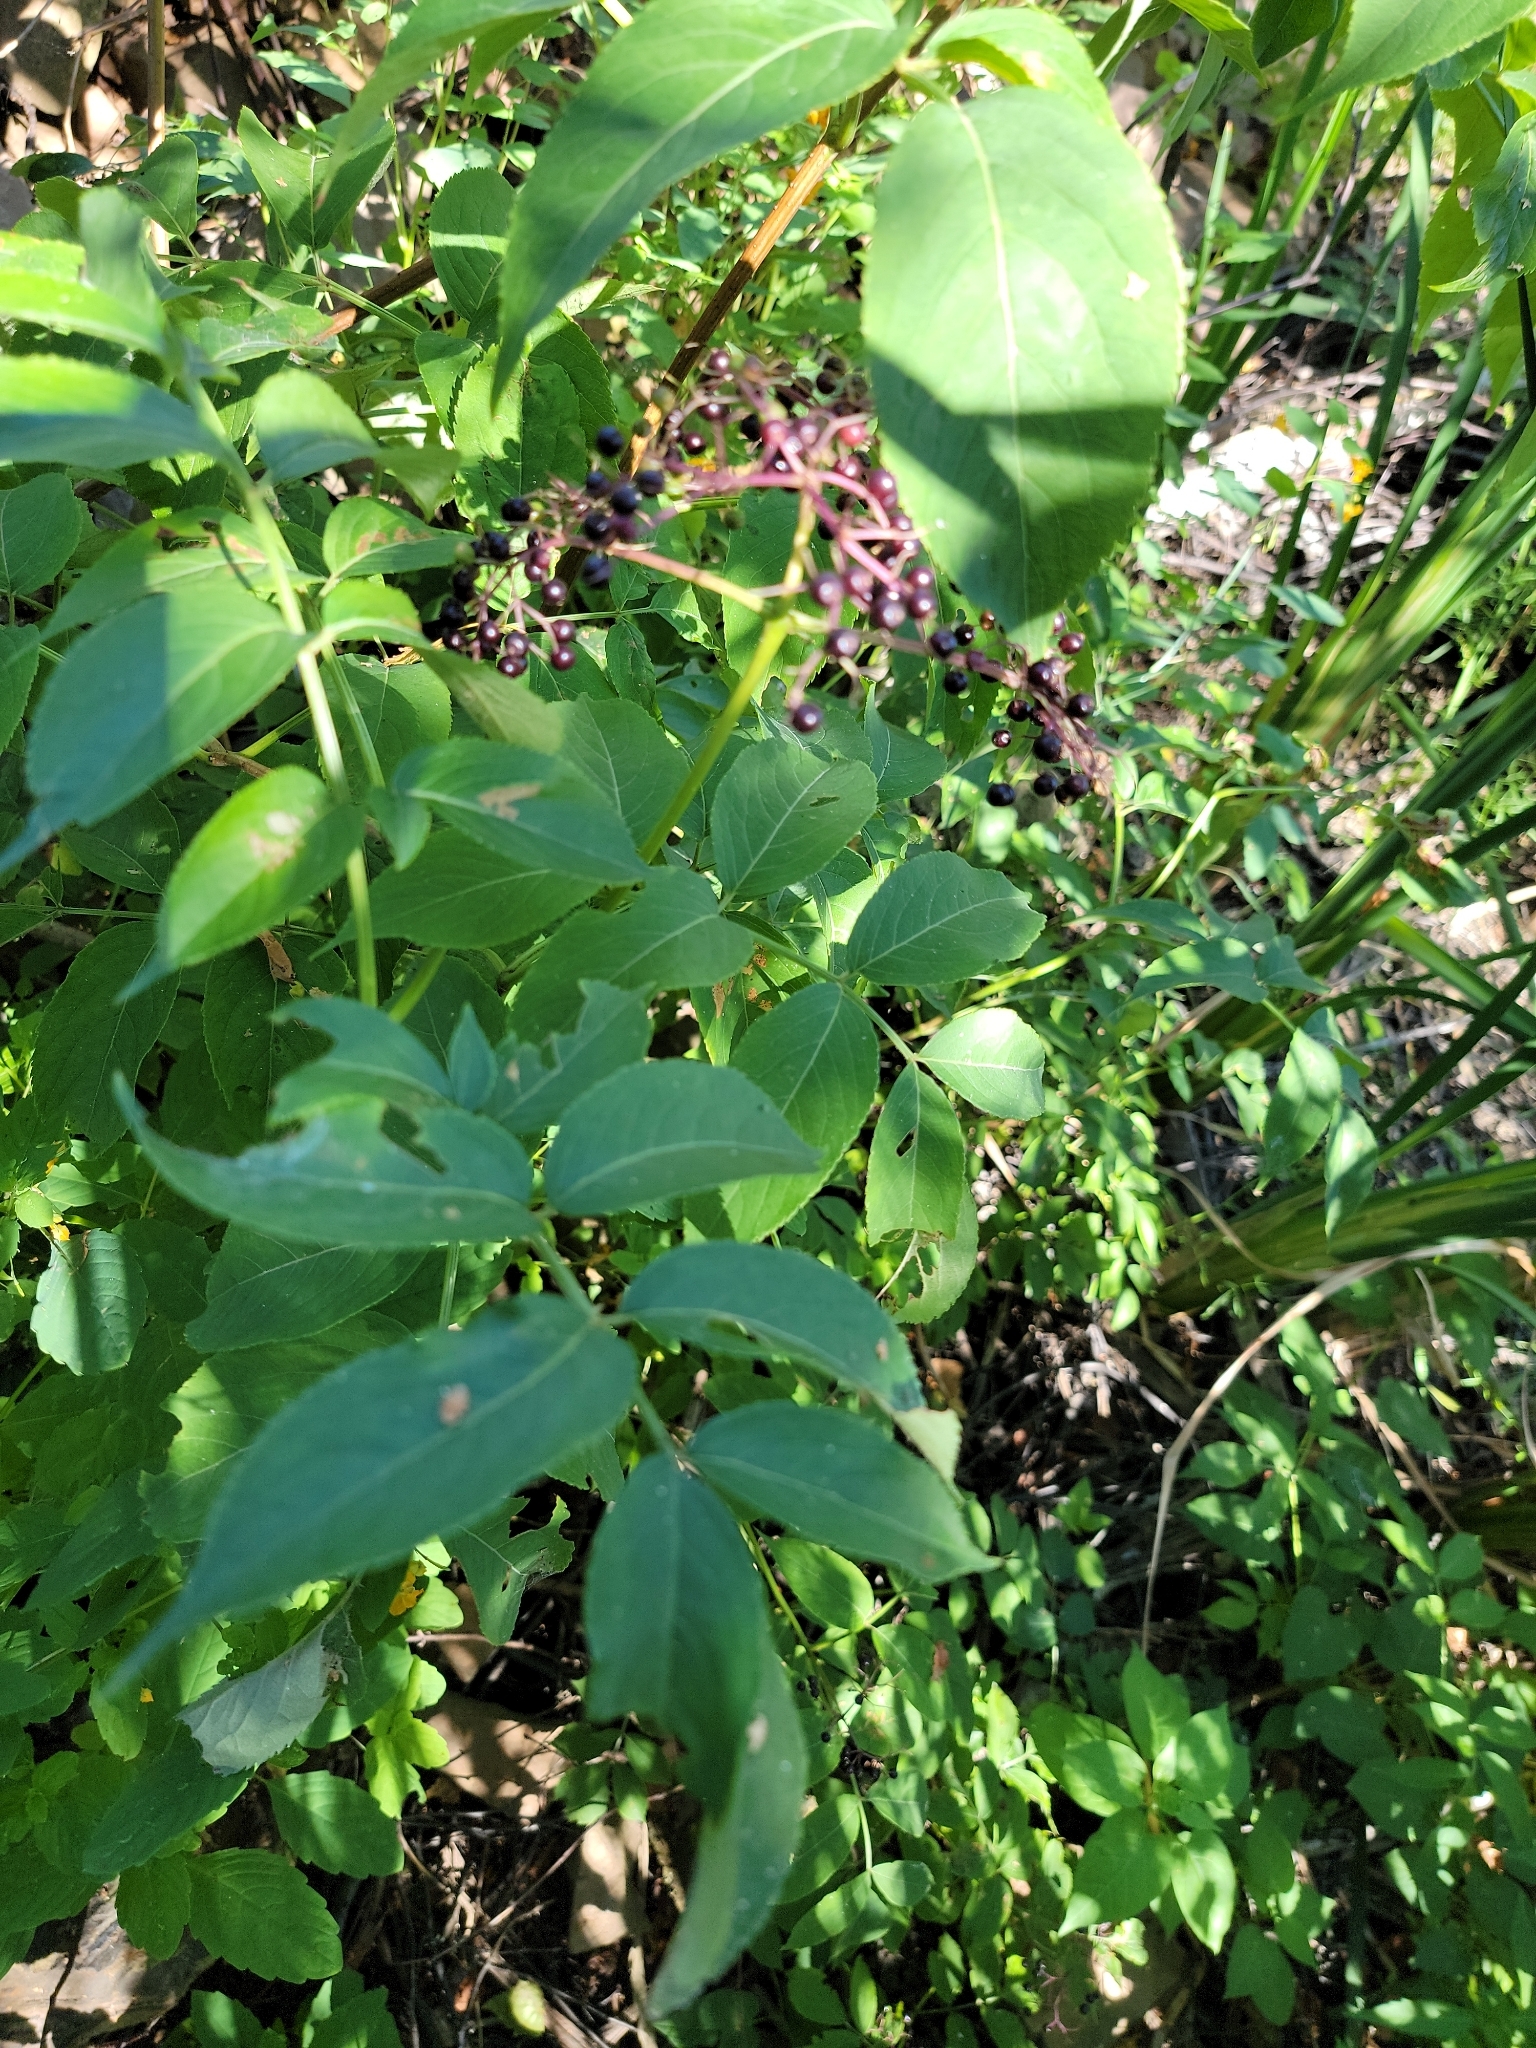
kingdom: Plantae
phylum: Tracheophyta
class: Magnoliopsida
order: Dipsacales
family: Viburnaceae
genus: Sambucus
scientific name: Sambucus canadensis
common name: American elder
